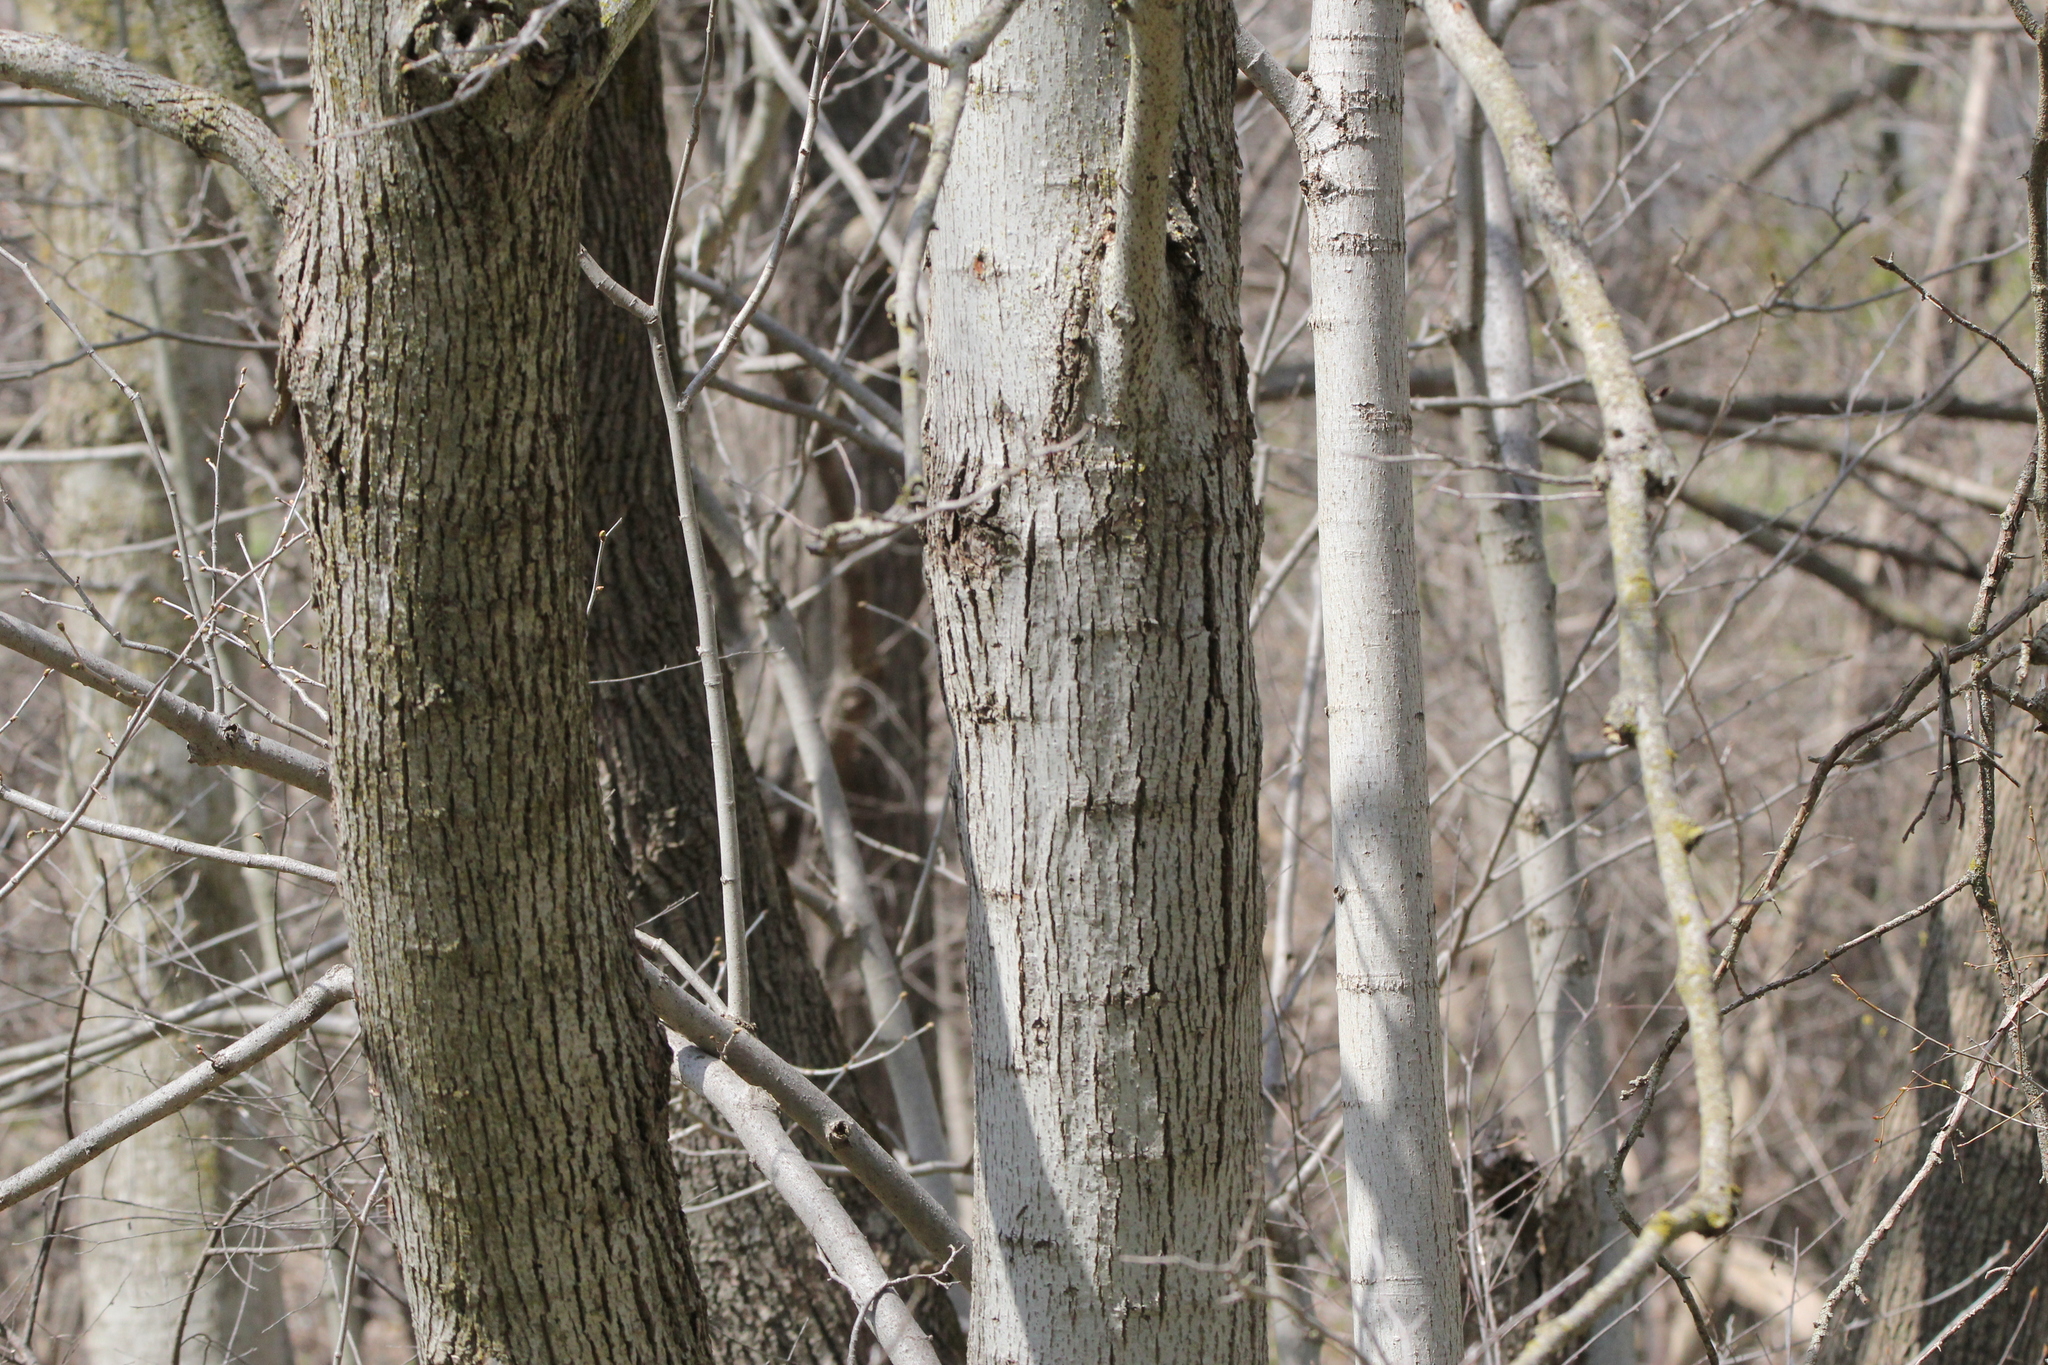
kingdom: Plantae
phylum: Tracheophyta
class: Magnoliopsida
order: Malvales
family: Malvaceae
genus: Tilia
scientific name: Tilia americana
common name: Basswood
